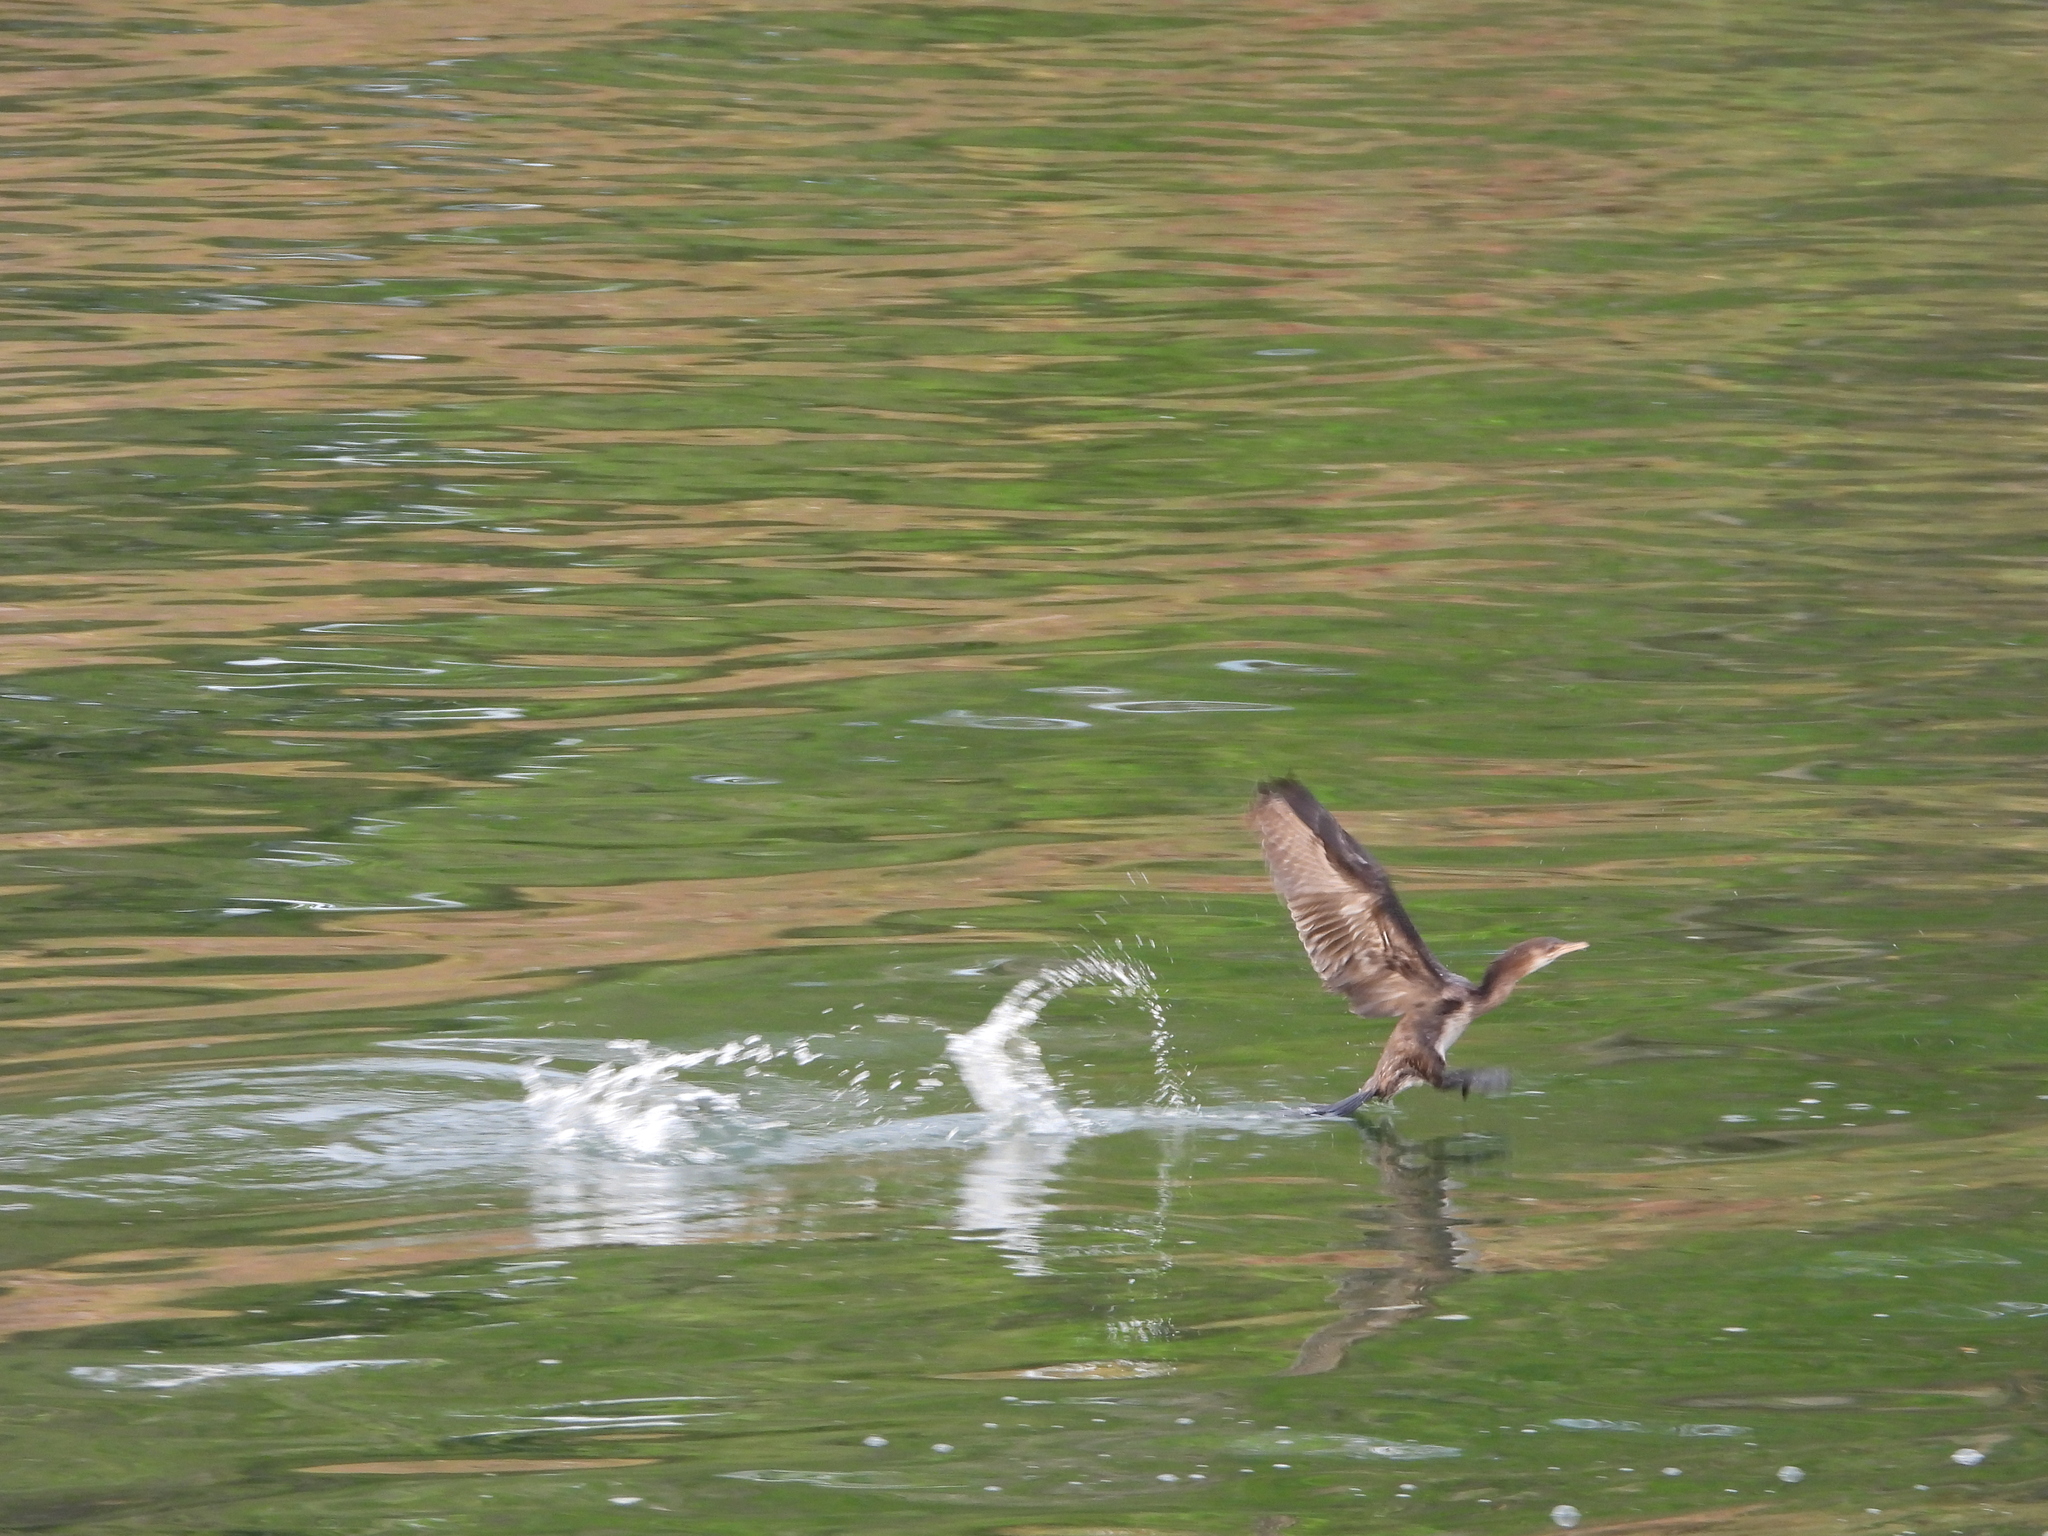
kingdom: Animalia
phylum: Chordata
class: Aves
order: Suliformes
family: Phalacrocoracidae
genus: Microcarbo
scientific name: Microcarbo africanus
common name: Long-tailed cormorant
